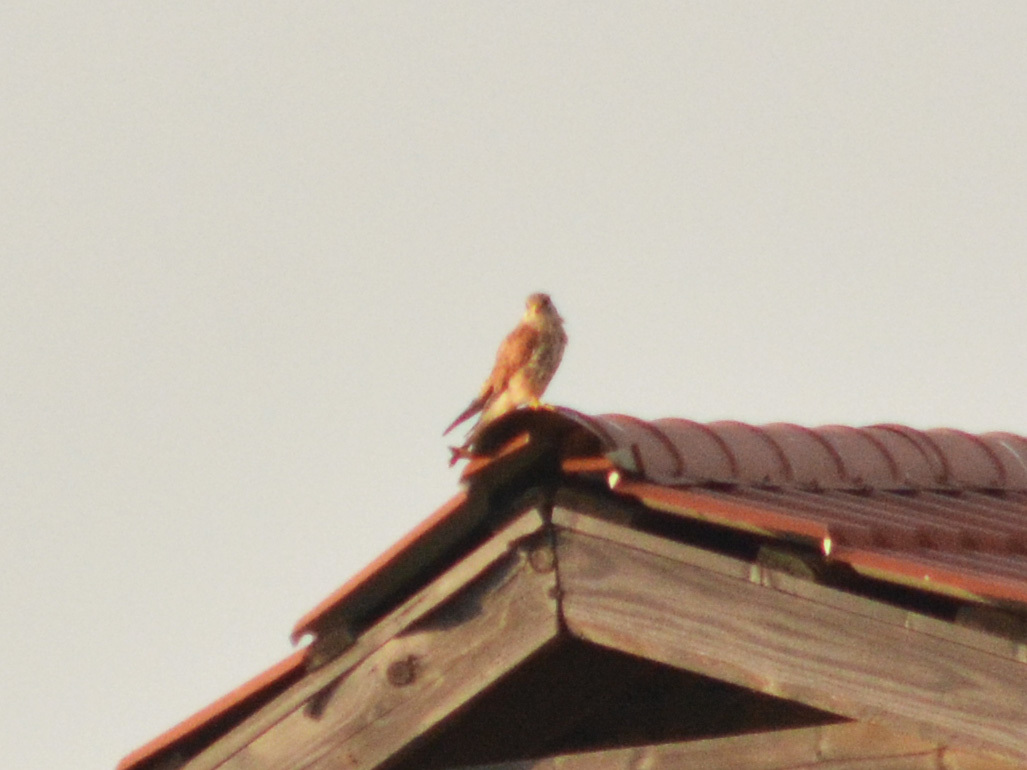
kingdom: Animalia
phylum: Chordata
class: Aves
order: Falconiformes
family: Falconidae
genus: Falco
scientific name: Falco tinnunculus
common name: Common kestrel
